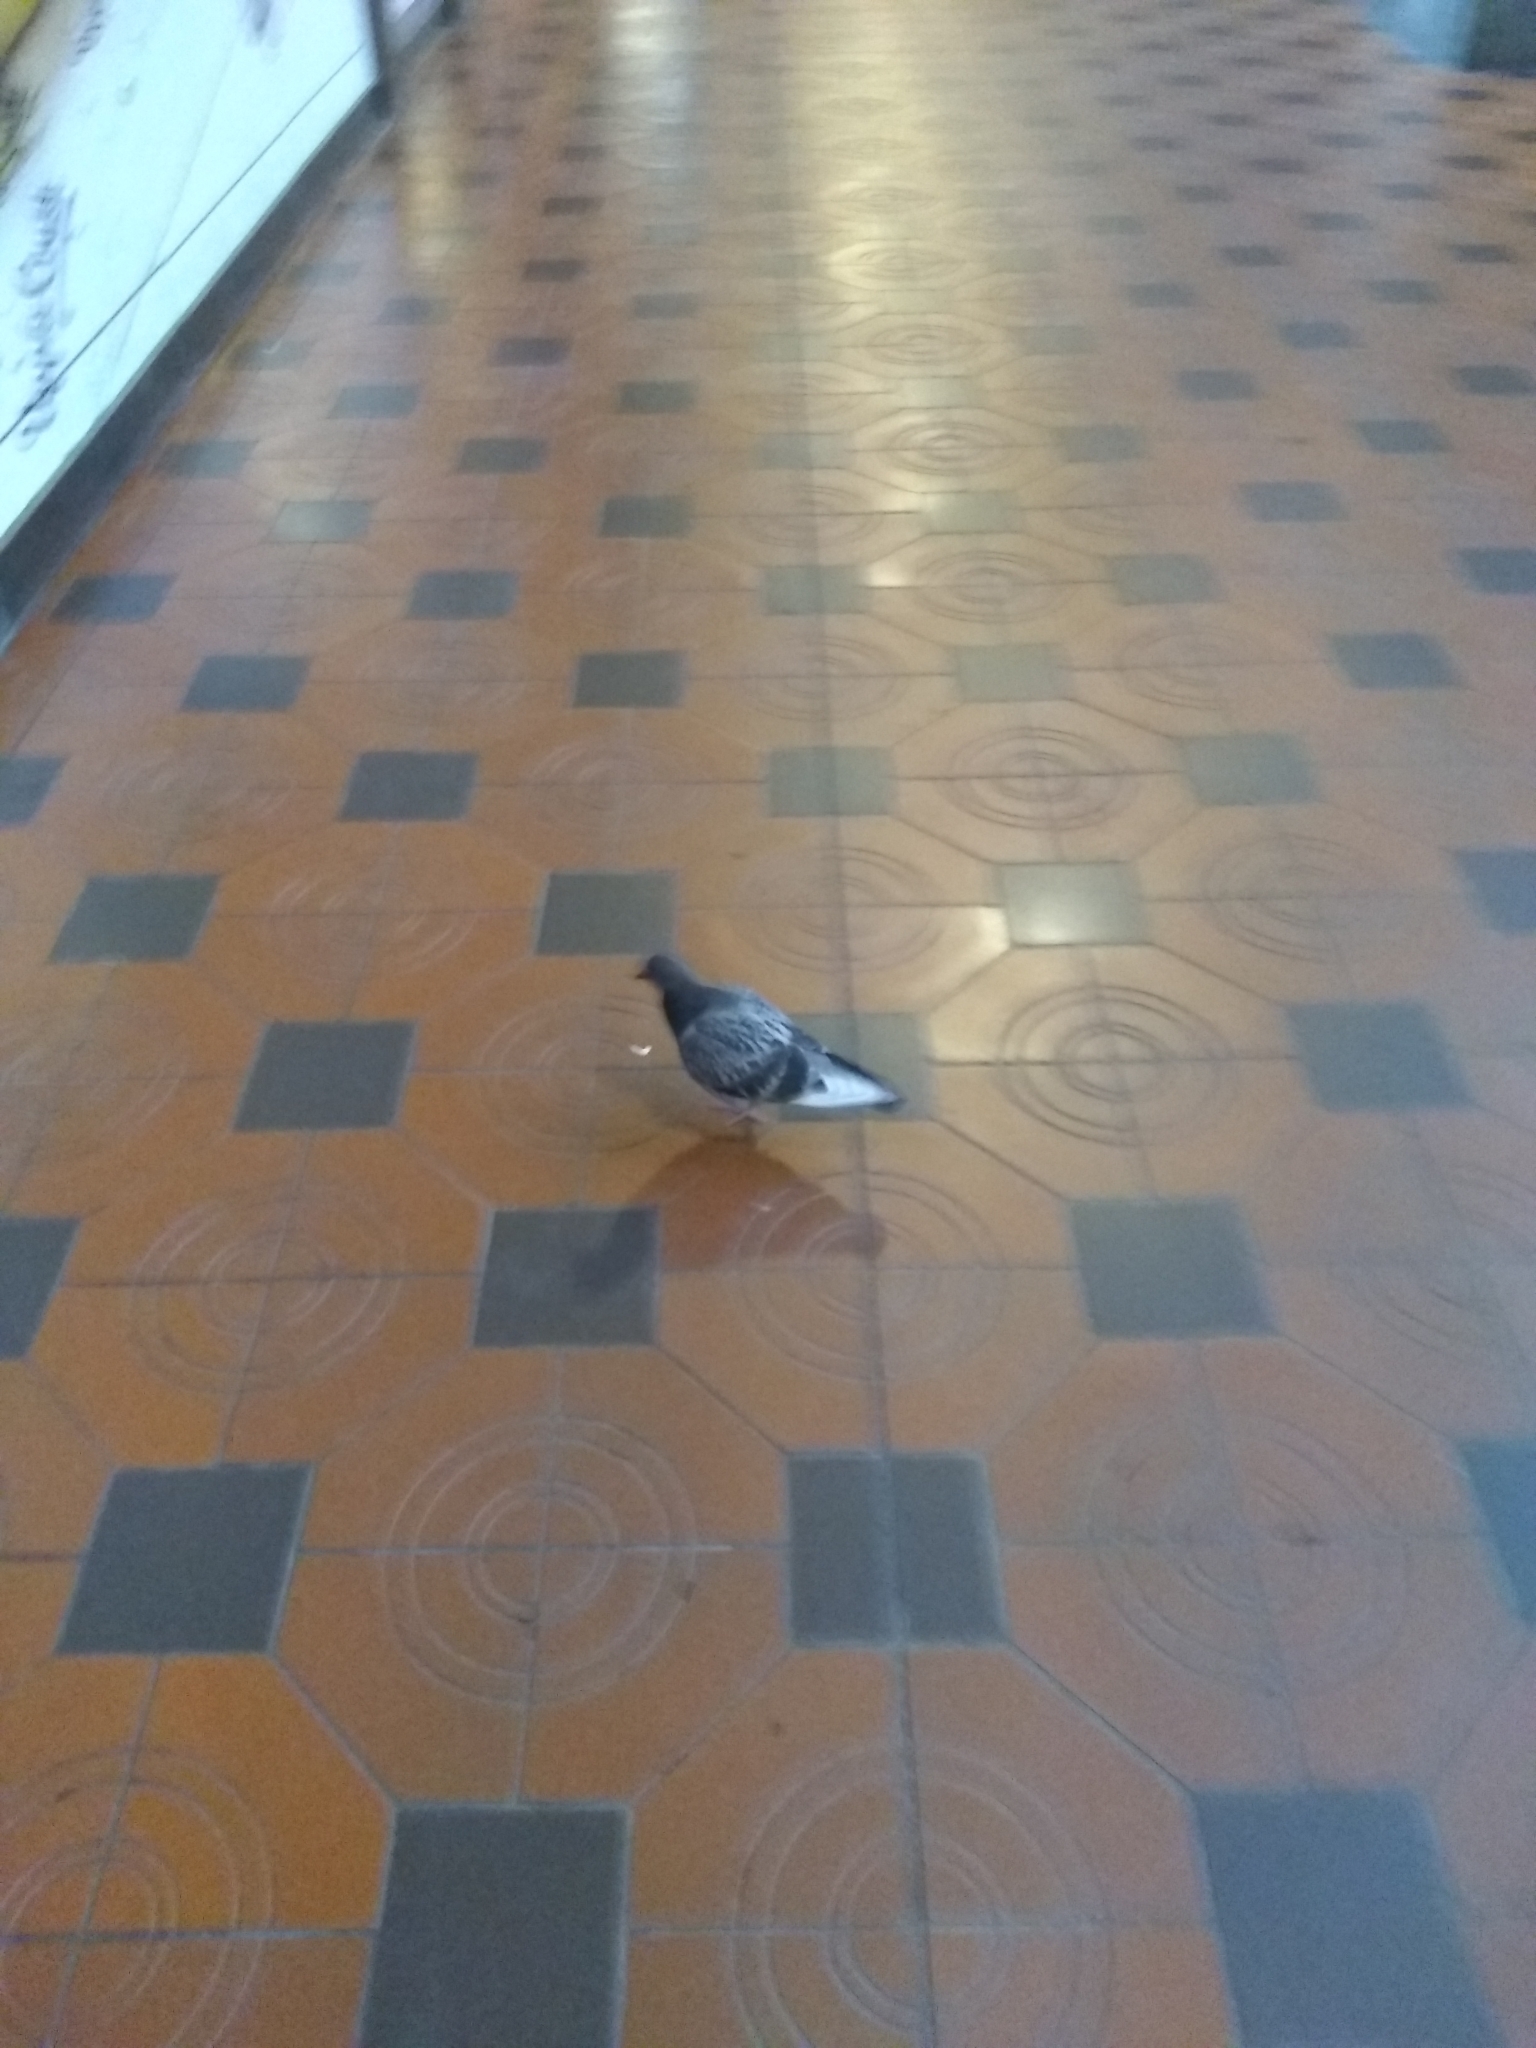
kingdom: Animalia
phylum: Chordata
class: Aves
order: Columbiformes
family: Columbidae
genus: Columba
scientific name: Columba livia
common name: Rock pigeon
